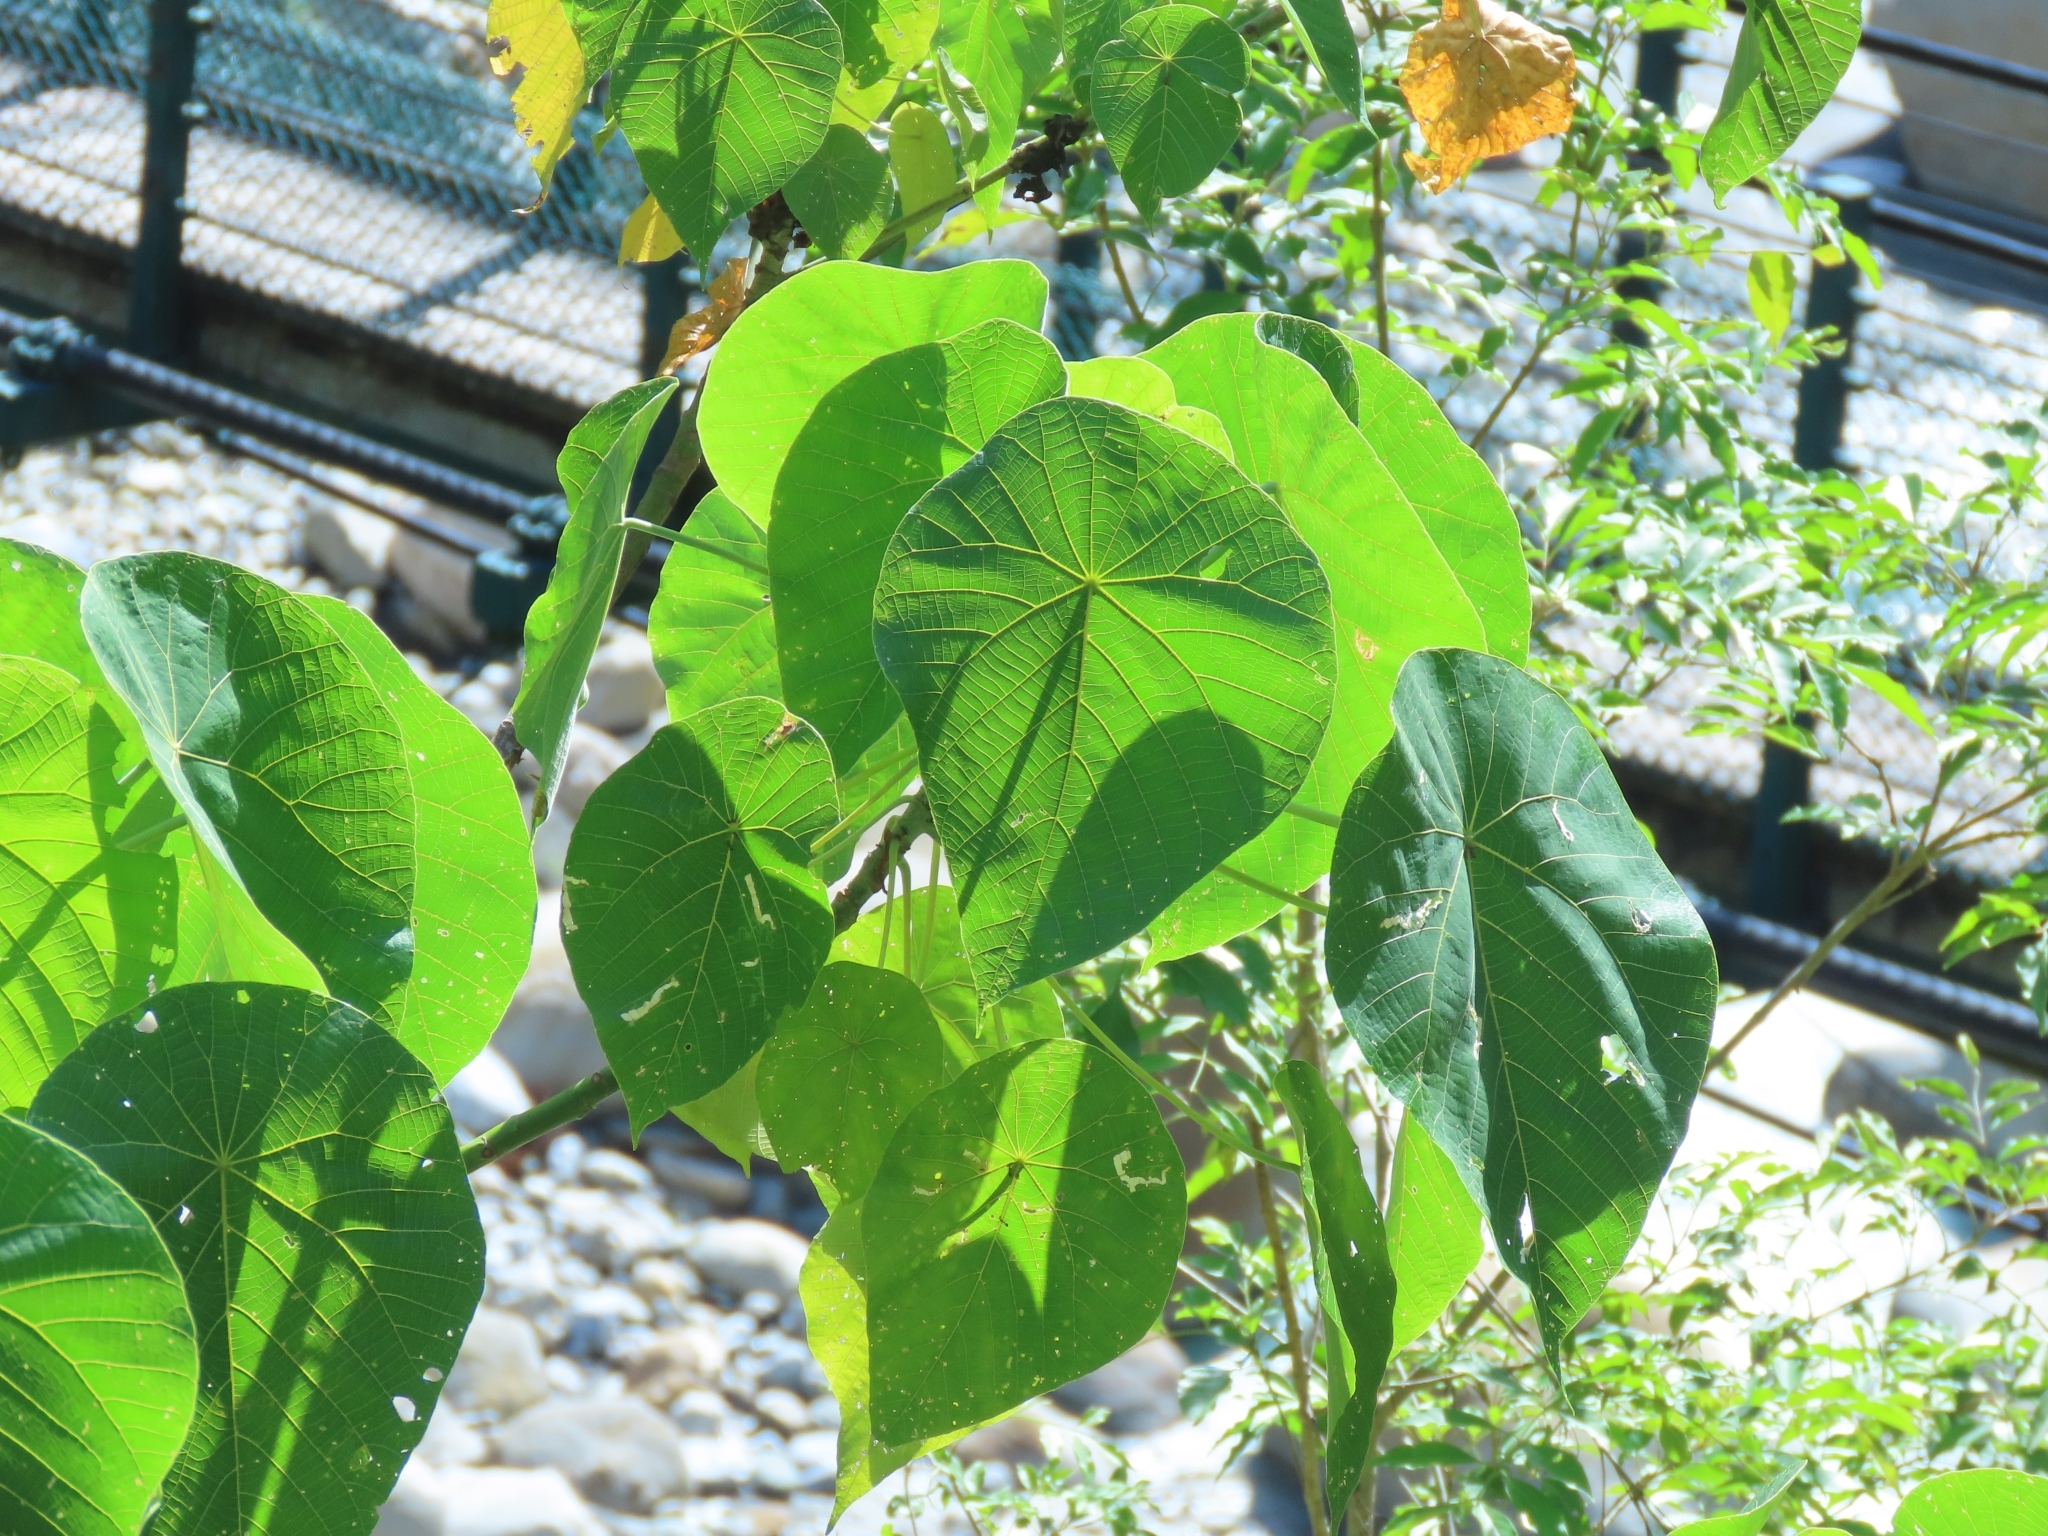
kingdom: Plantae
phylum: Tracheophyta
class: Magnoliopsida
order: Malpighiales
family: Euphorbiaceae
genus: Macaranga
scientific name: Macaranga tanarius
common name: Parasol leaf tree
